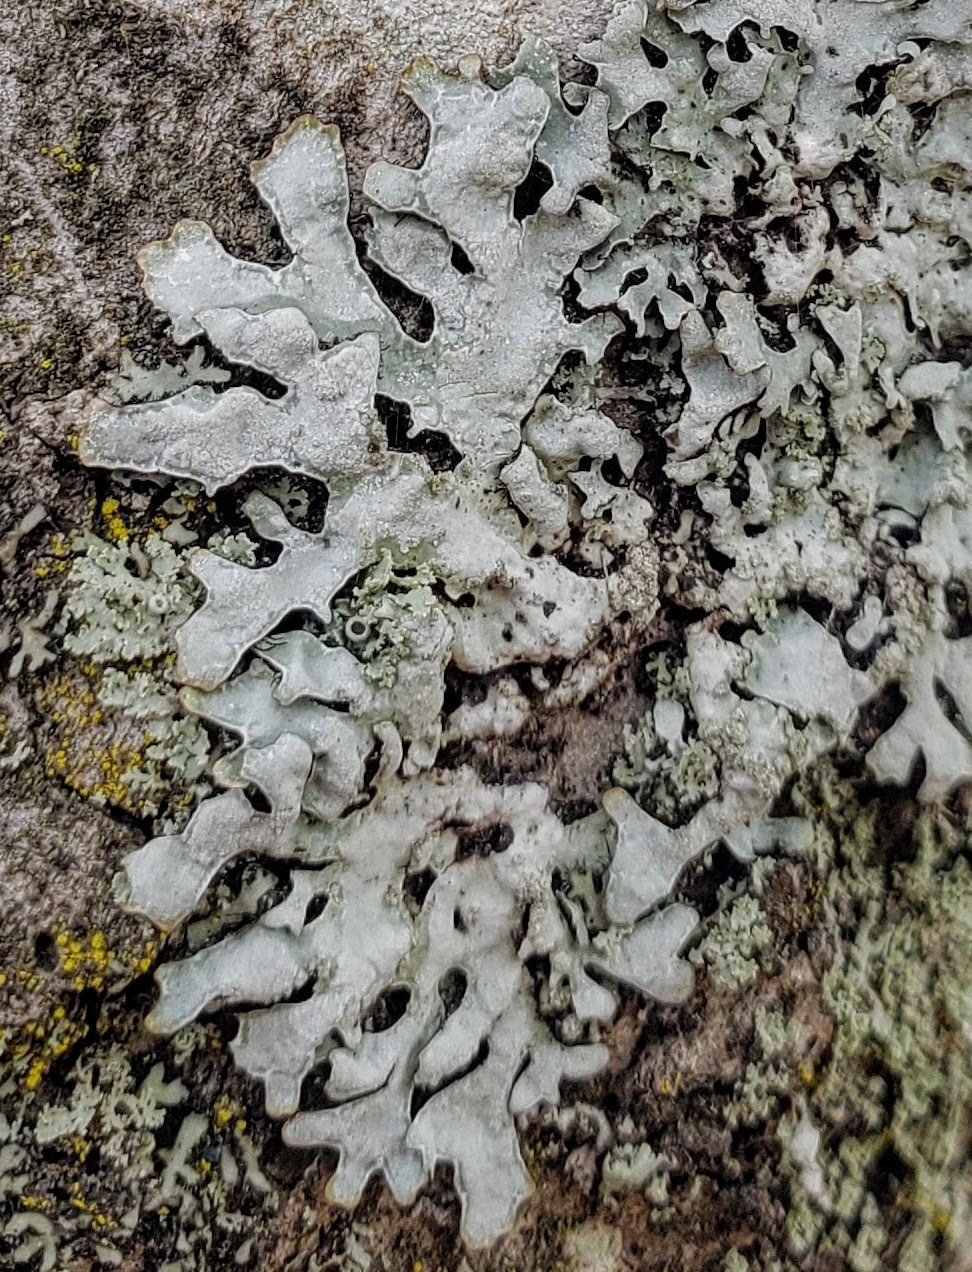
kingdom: Fungi
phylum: Ascomycota
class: Lecanoromycetes
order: Lecanorales
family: Parmeliaceae
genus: Parmelia
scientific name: Parmelia sulcata
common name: Netted shield lichen
